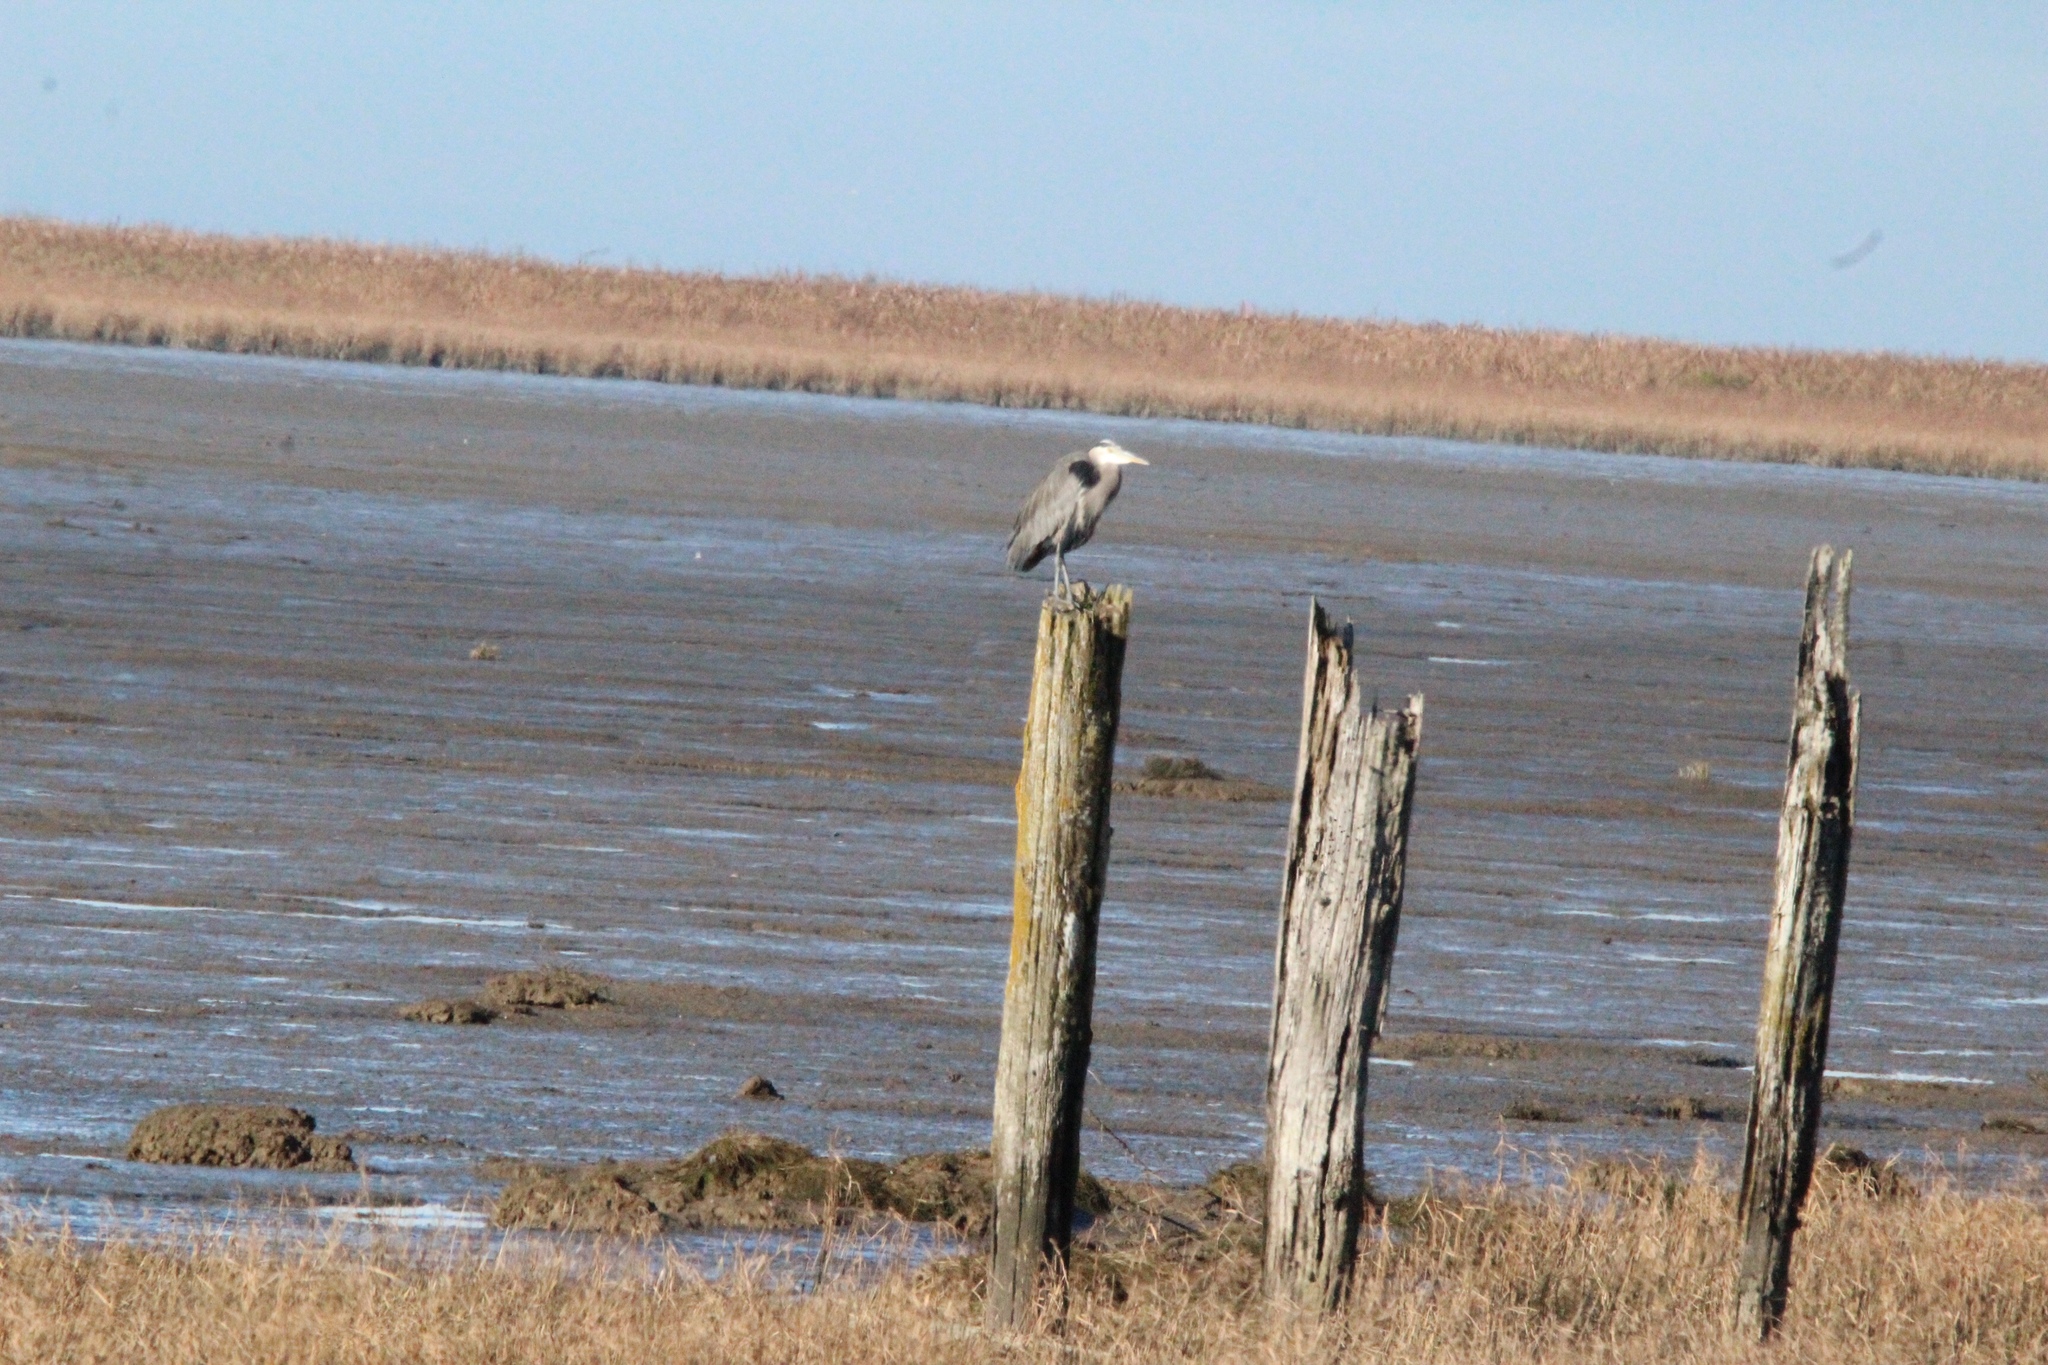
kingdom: Animalia
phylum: Chordata
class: Aves
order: Pelecaniformes
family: Ardeidae
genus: Ardea
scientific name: Ardea herodias
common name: Great blue heron
